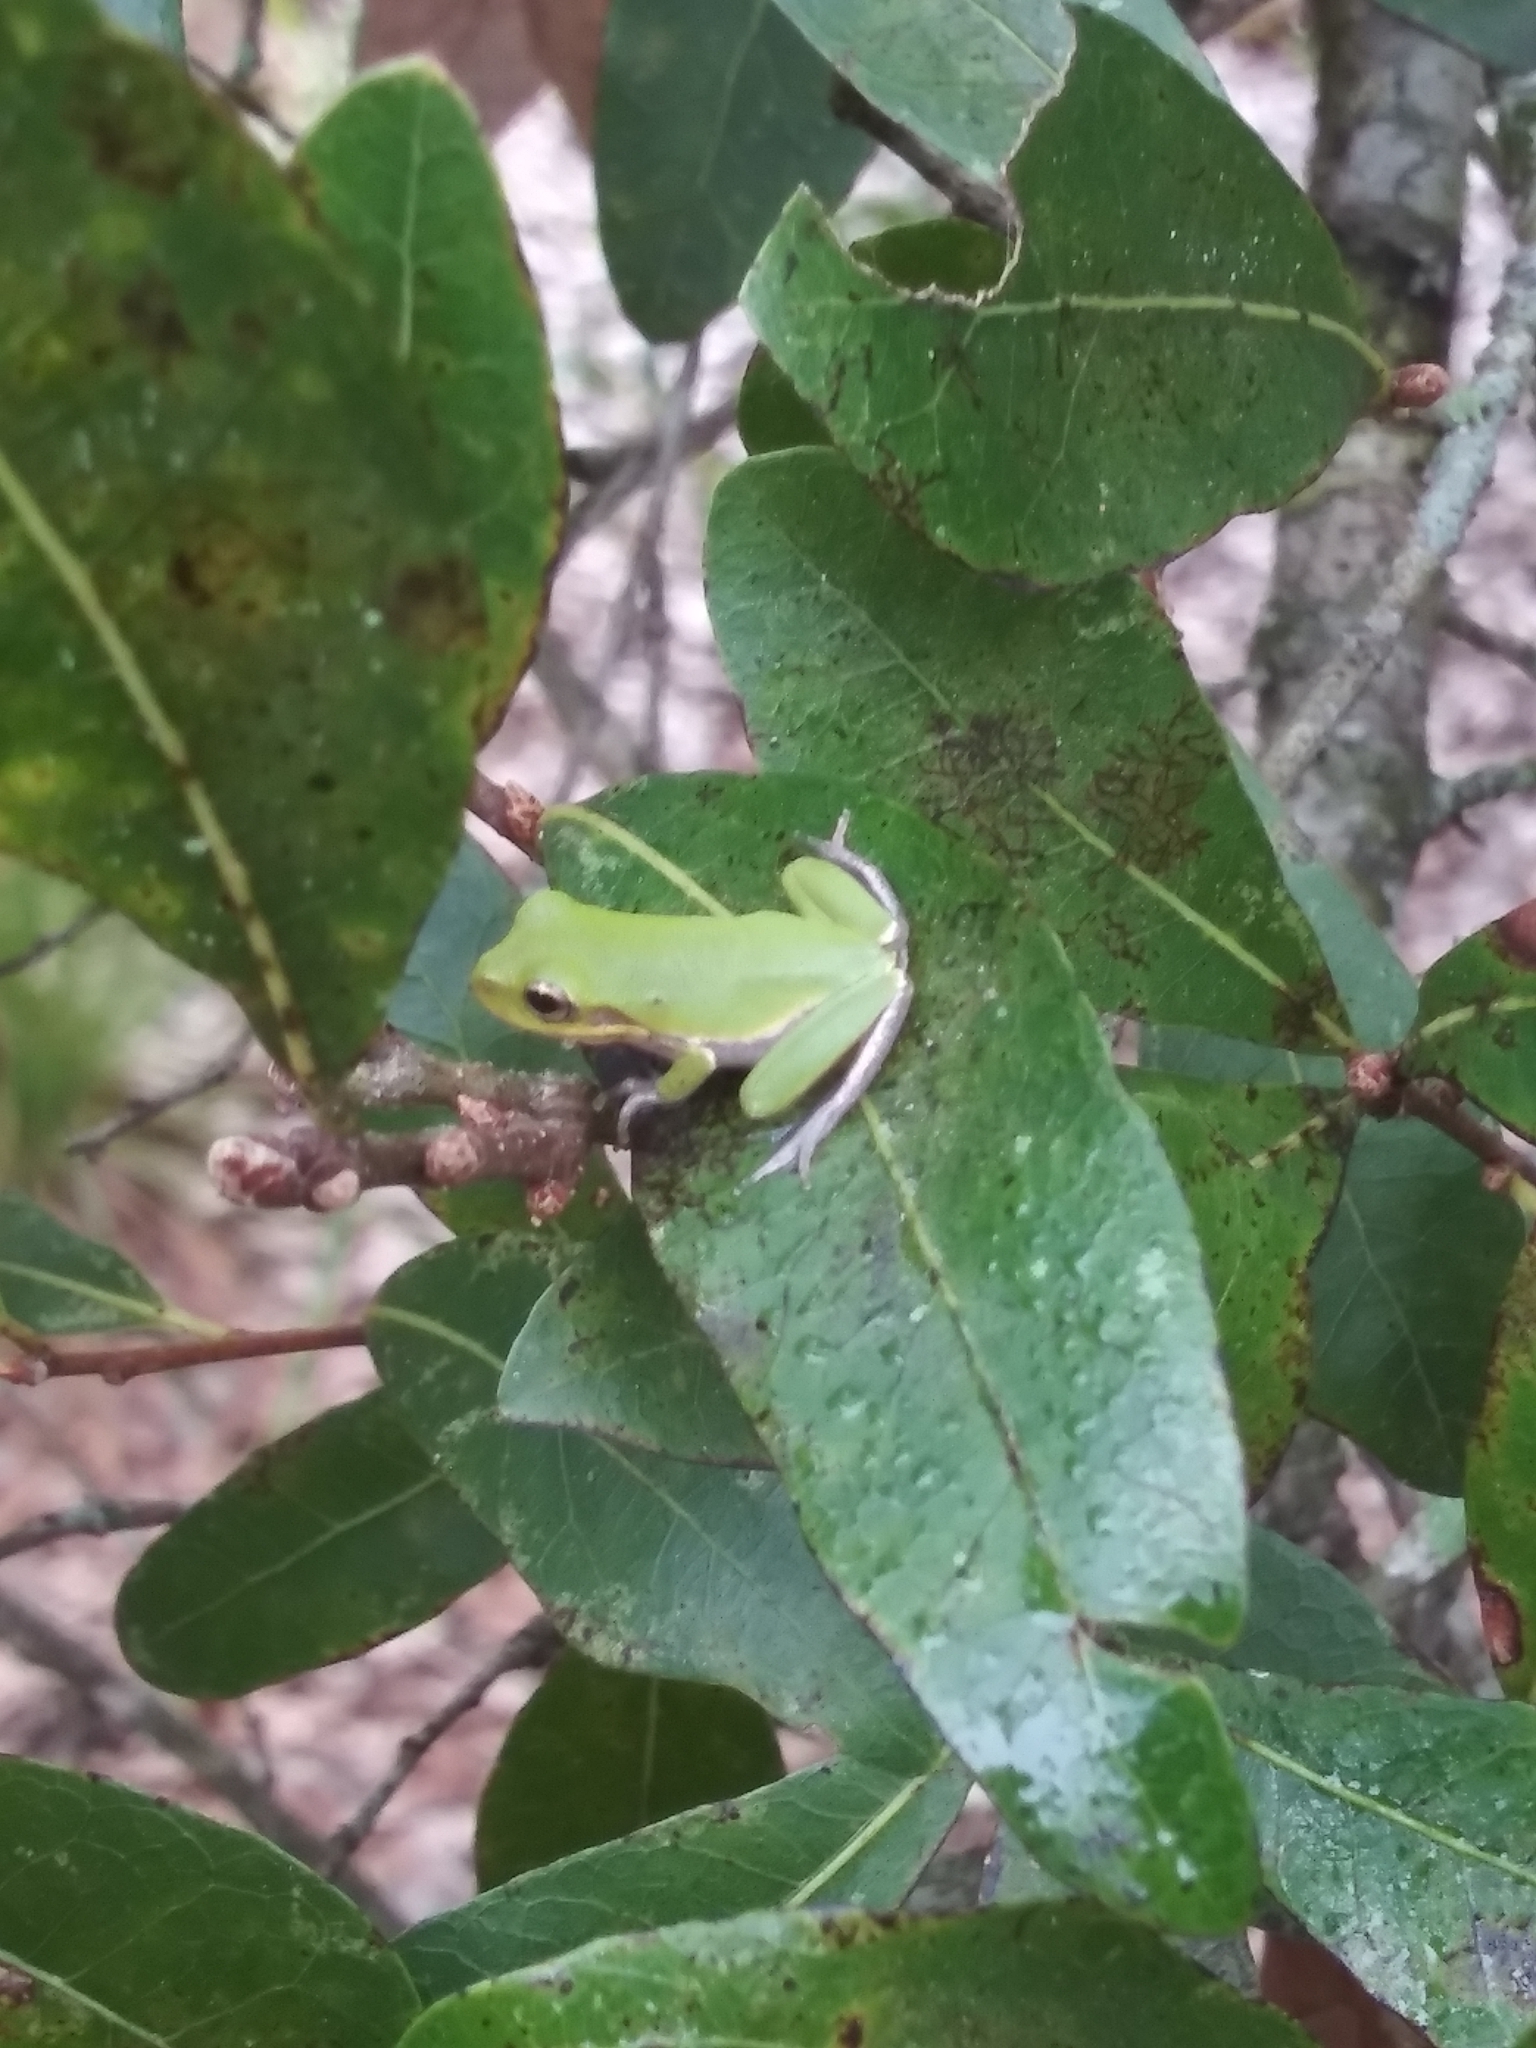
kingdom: Animalia
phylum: Chordata
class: Amphibia
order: Anura
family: Hylidae
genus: Dryophytes
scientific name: Dryophytes squirellus
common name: Squirrel treefrog
